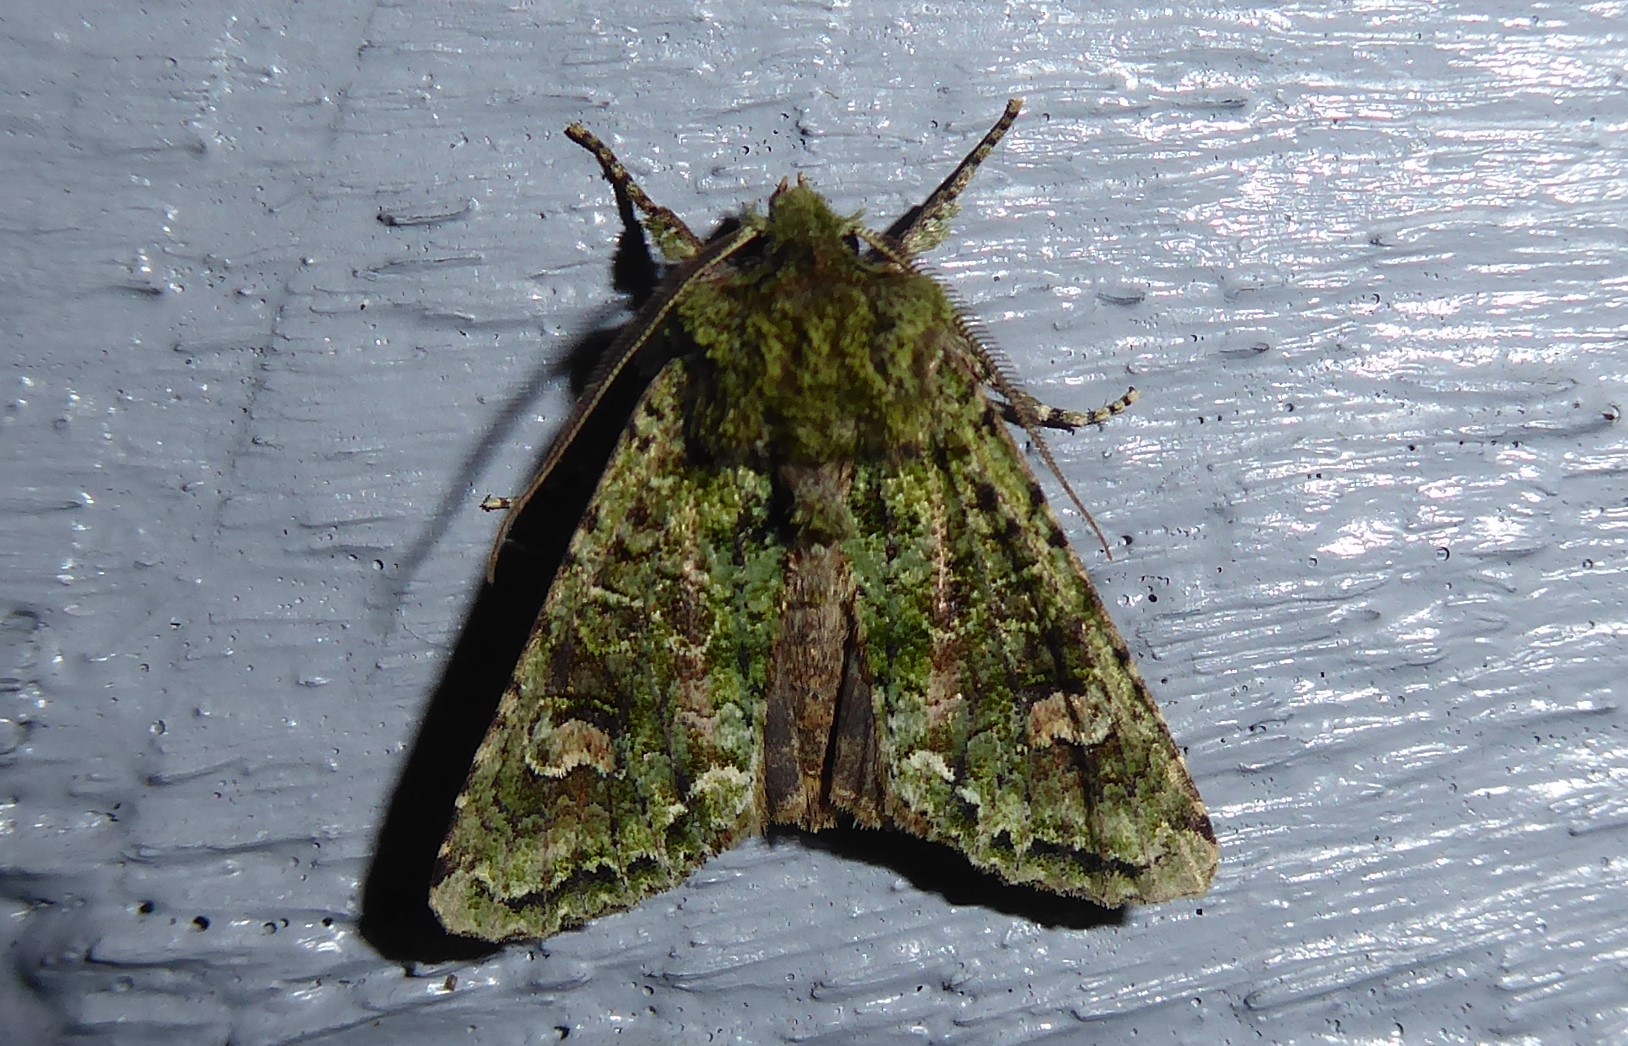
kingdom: Animalia
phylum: Arthropoda
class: Insecta
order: Lepidoptera
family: Noctuidae
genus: Ichneutica
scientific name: Ichneutica
